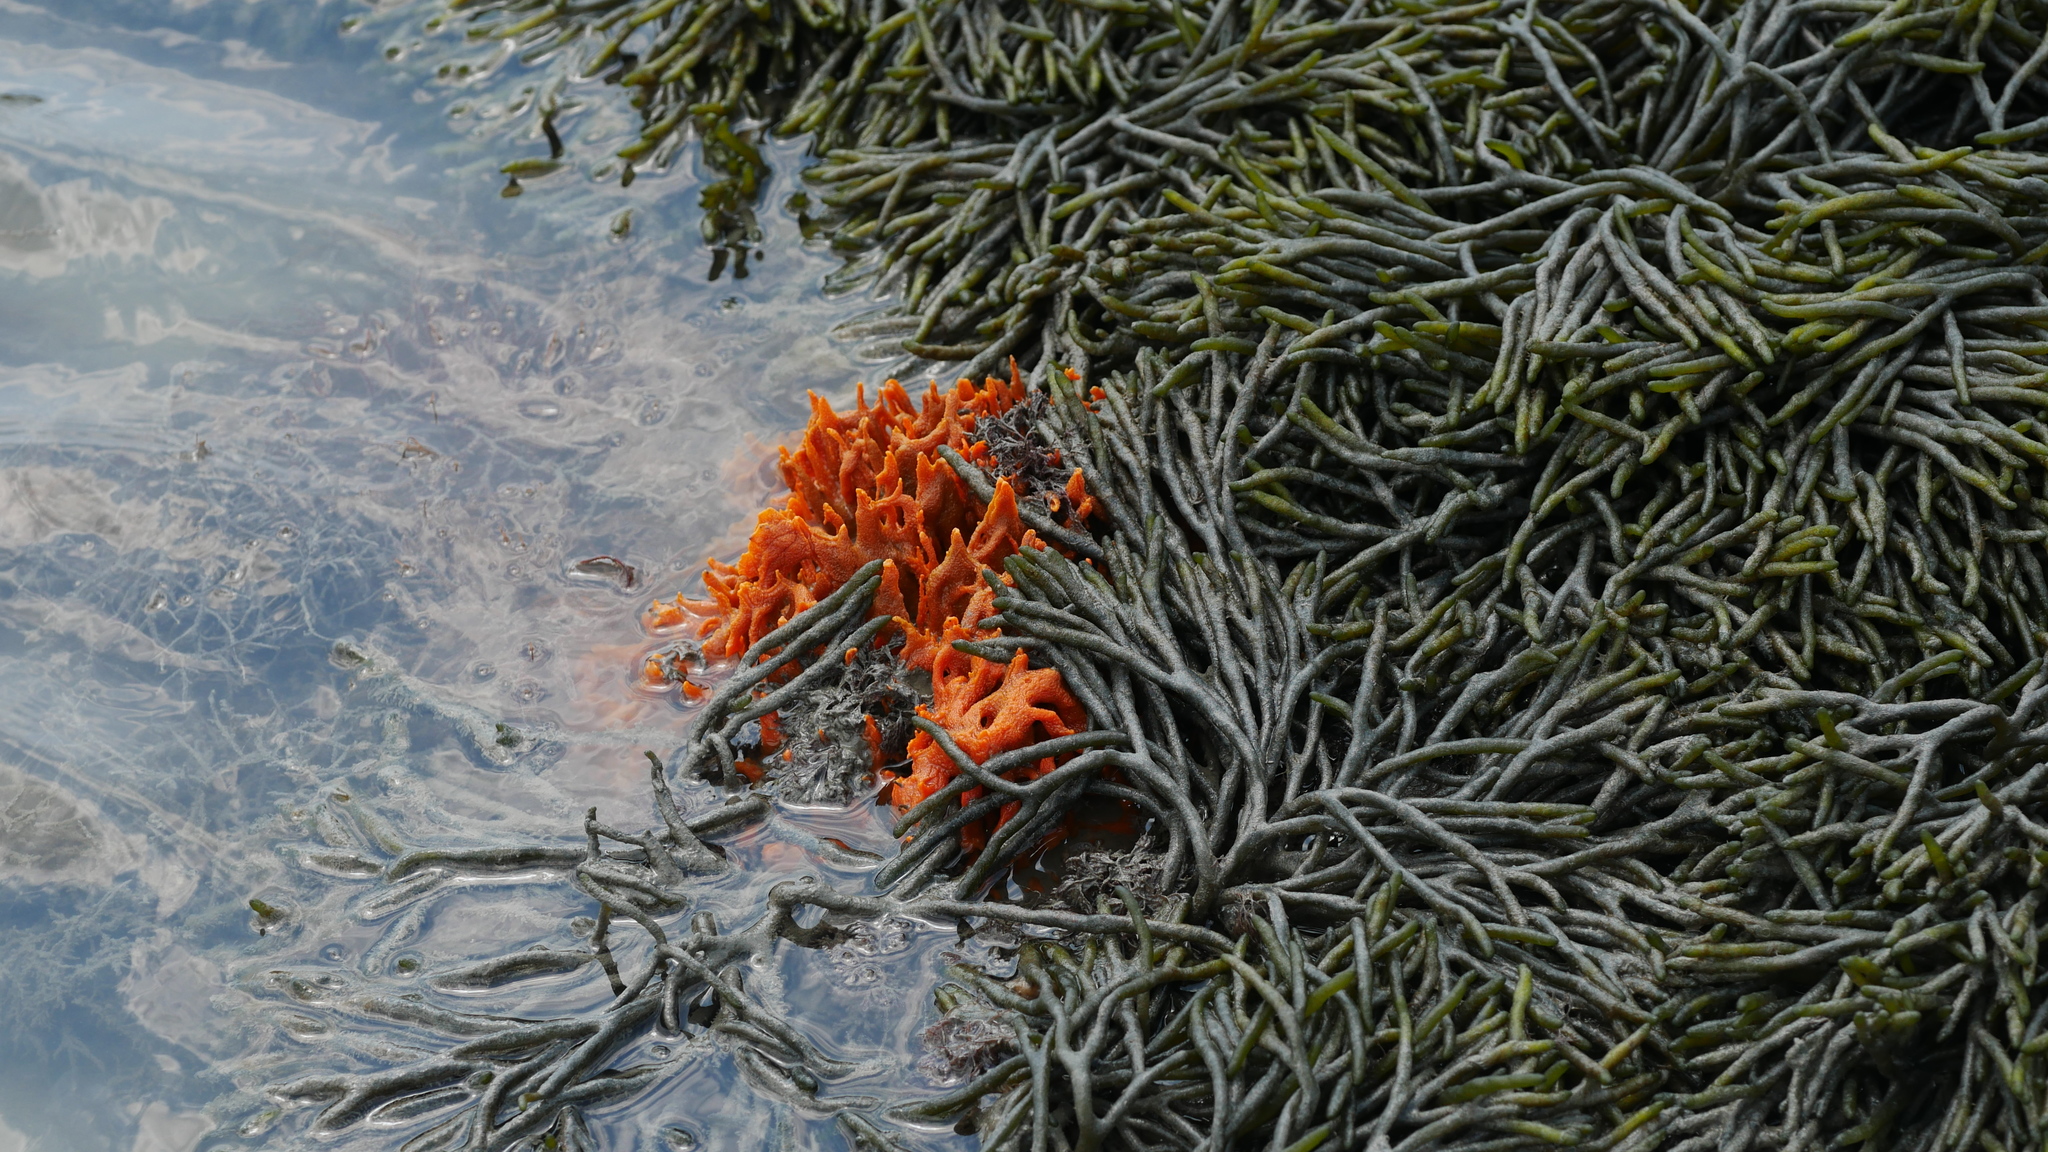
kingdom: Plantae
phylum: Chlorophyta
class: Ulvophyceae
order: Bryopsidales
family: Codiaceae
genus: Codium
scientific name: Codium fragile
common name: Dead man's fingers
